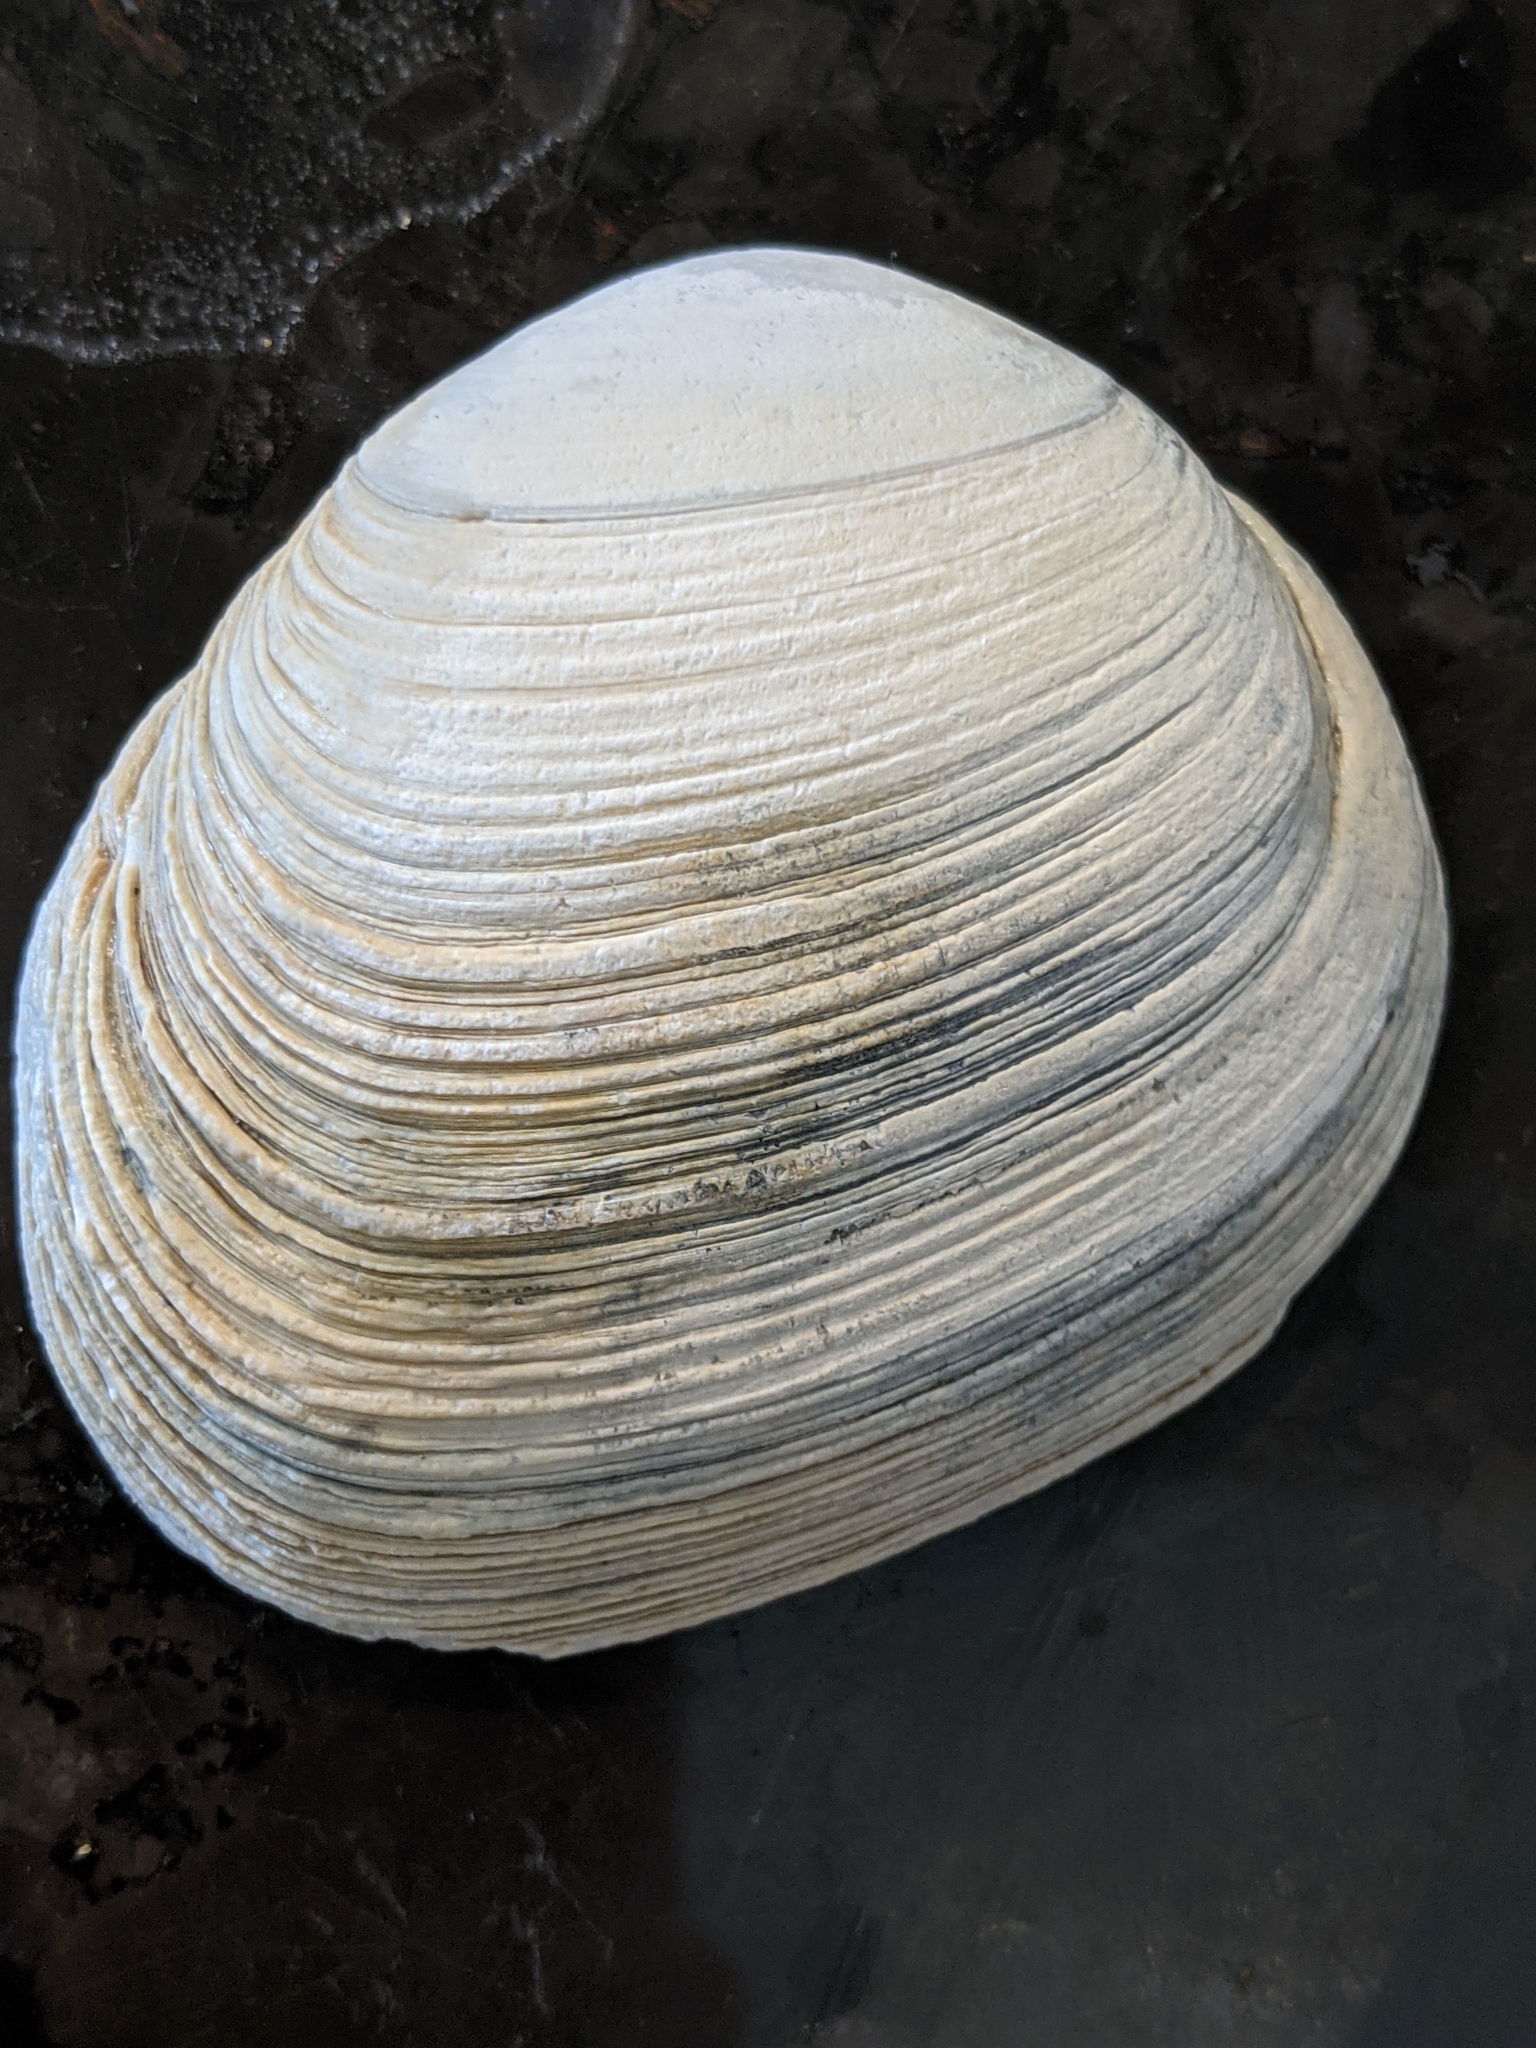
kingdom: Animalia
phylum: Mollusca
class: Bivalvia
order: Venerida
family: Veneridae
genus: Saxidomus
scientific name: Saxidomus nuttalli
